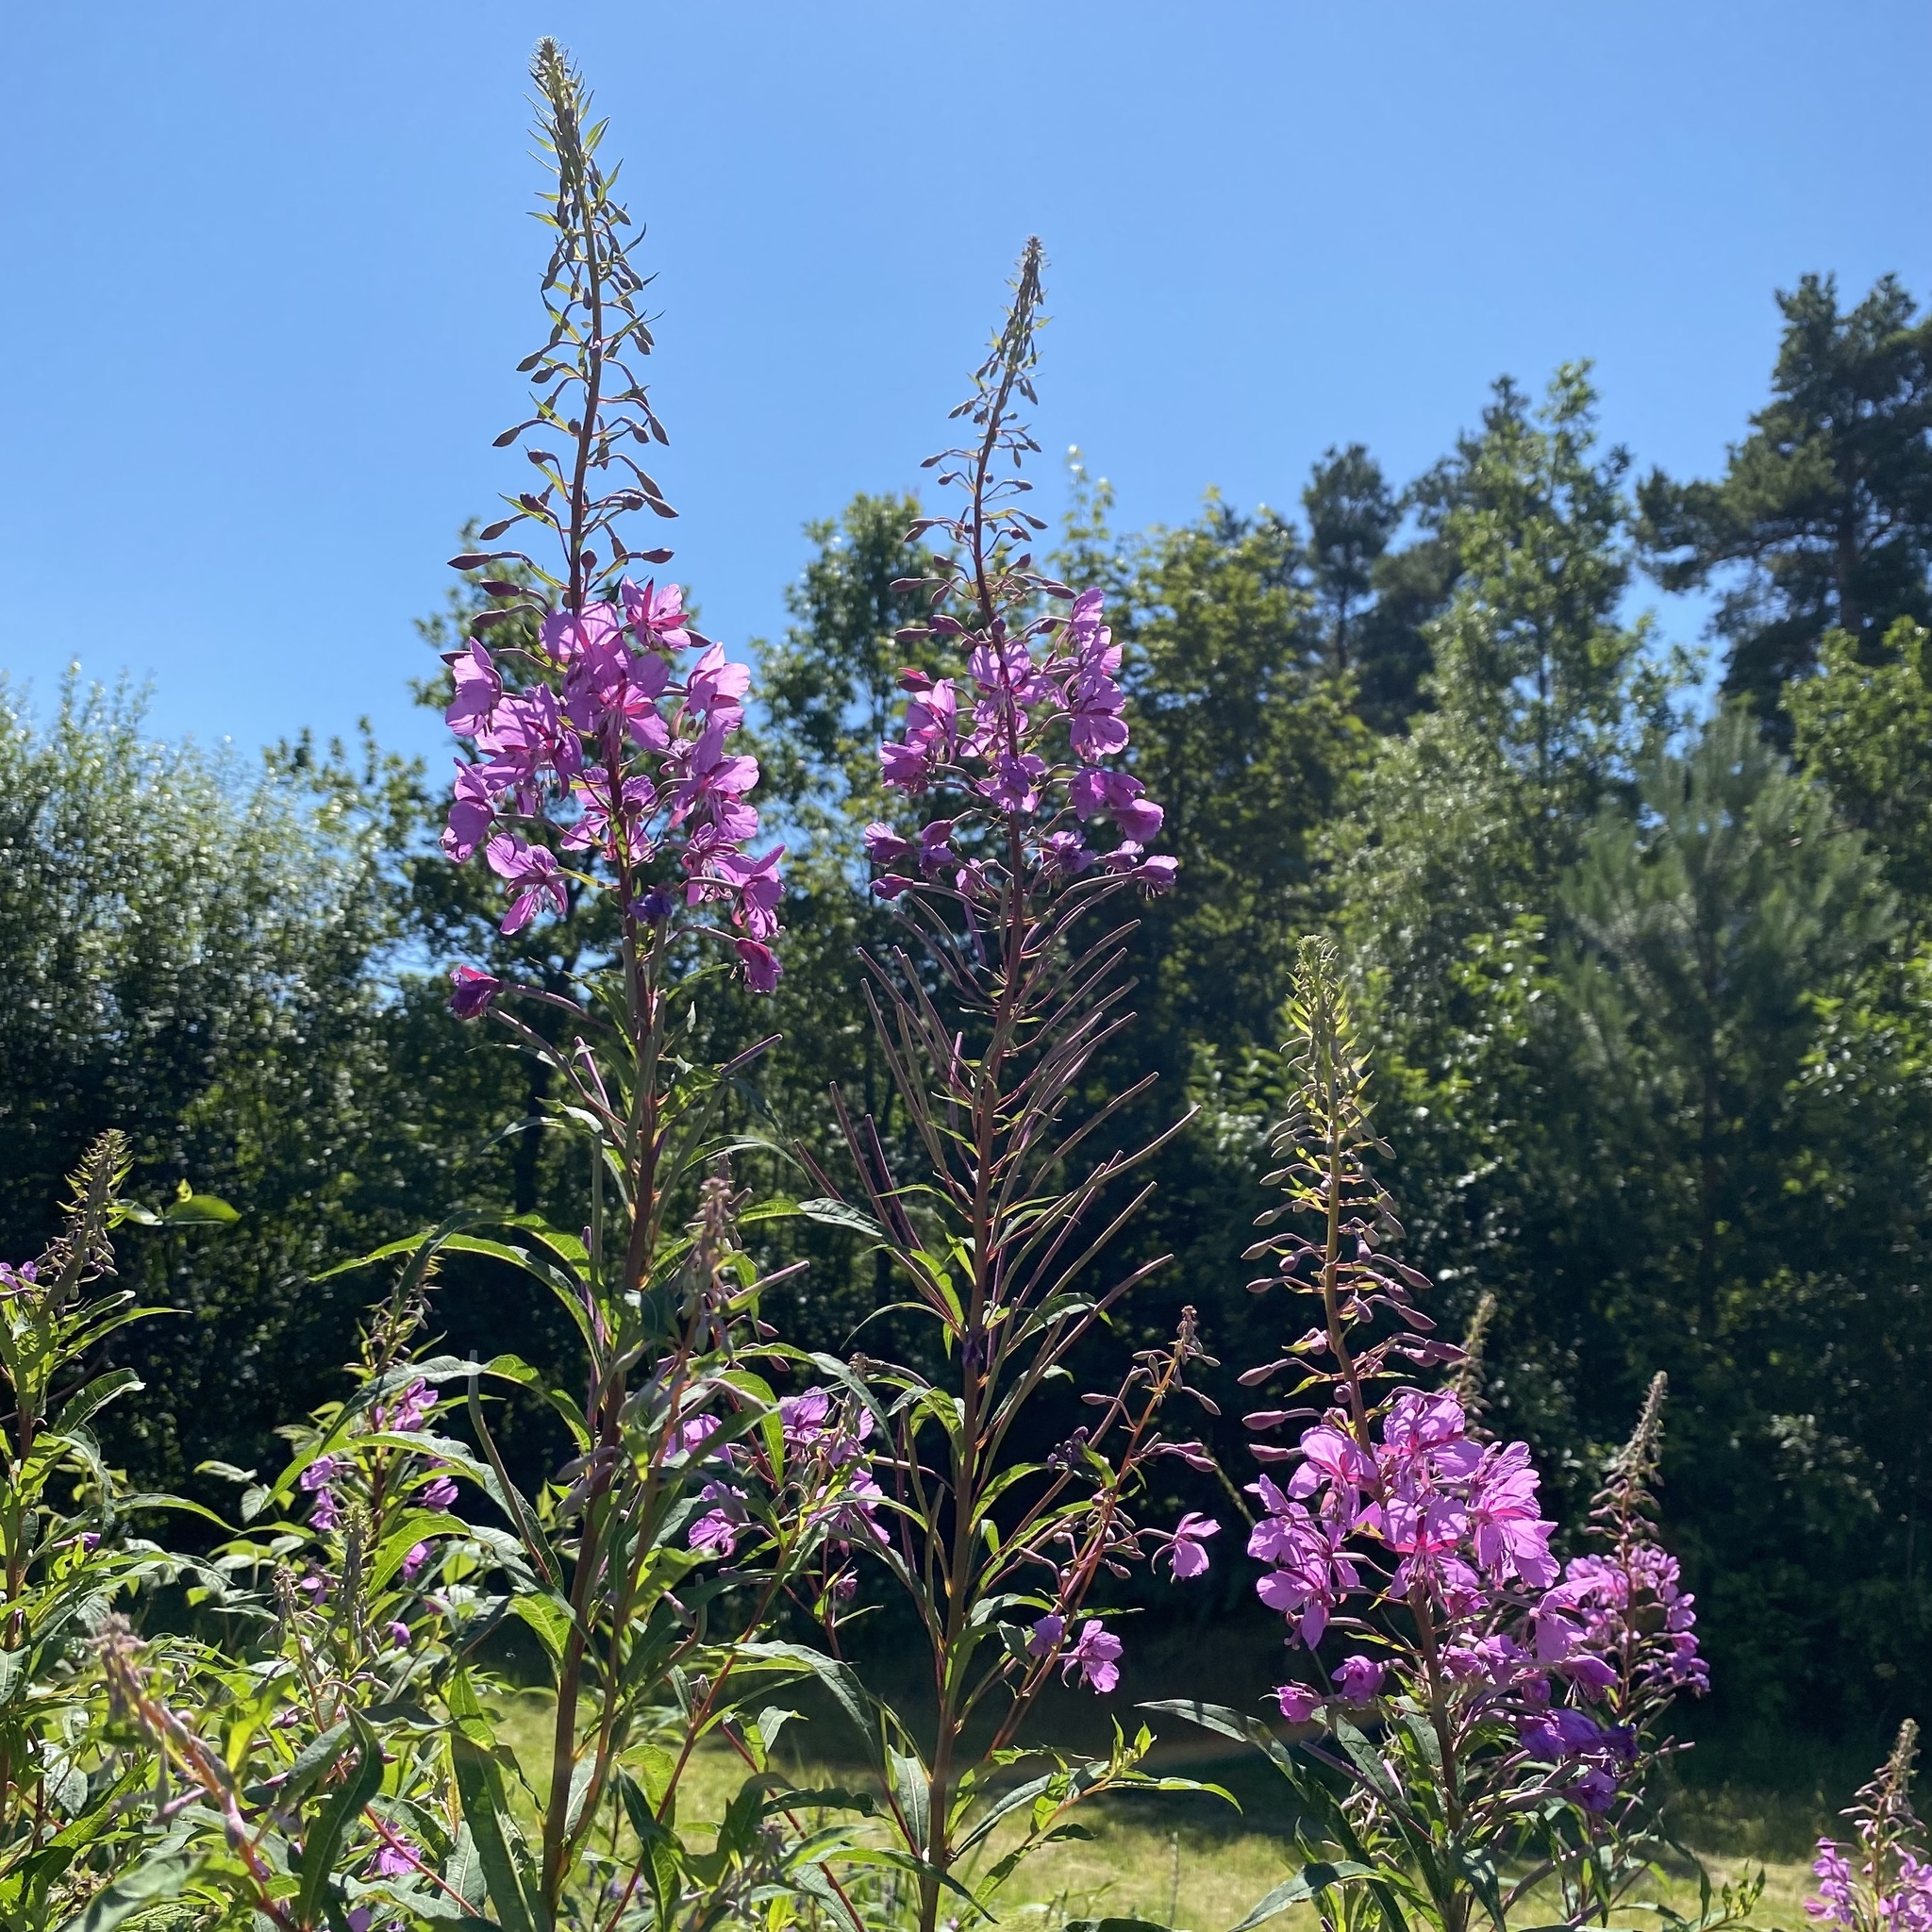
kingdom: Plantae
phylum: Tracheophyta
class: Magnoliopsida
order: Myrtales
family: Onagraceae
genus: Chamaenerion
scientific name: Chamaenerion angustifolium
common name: Fireweed
